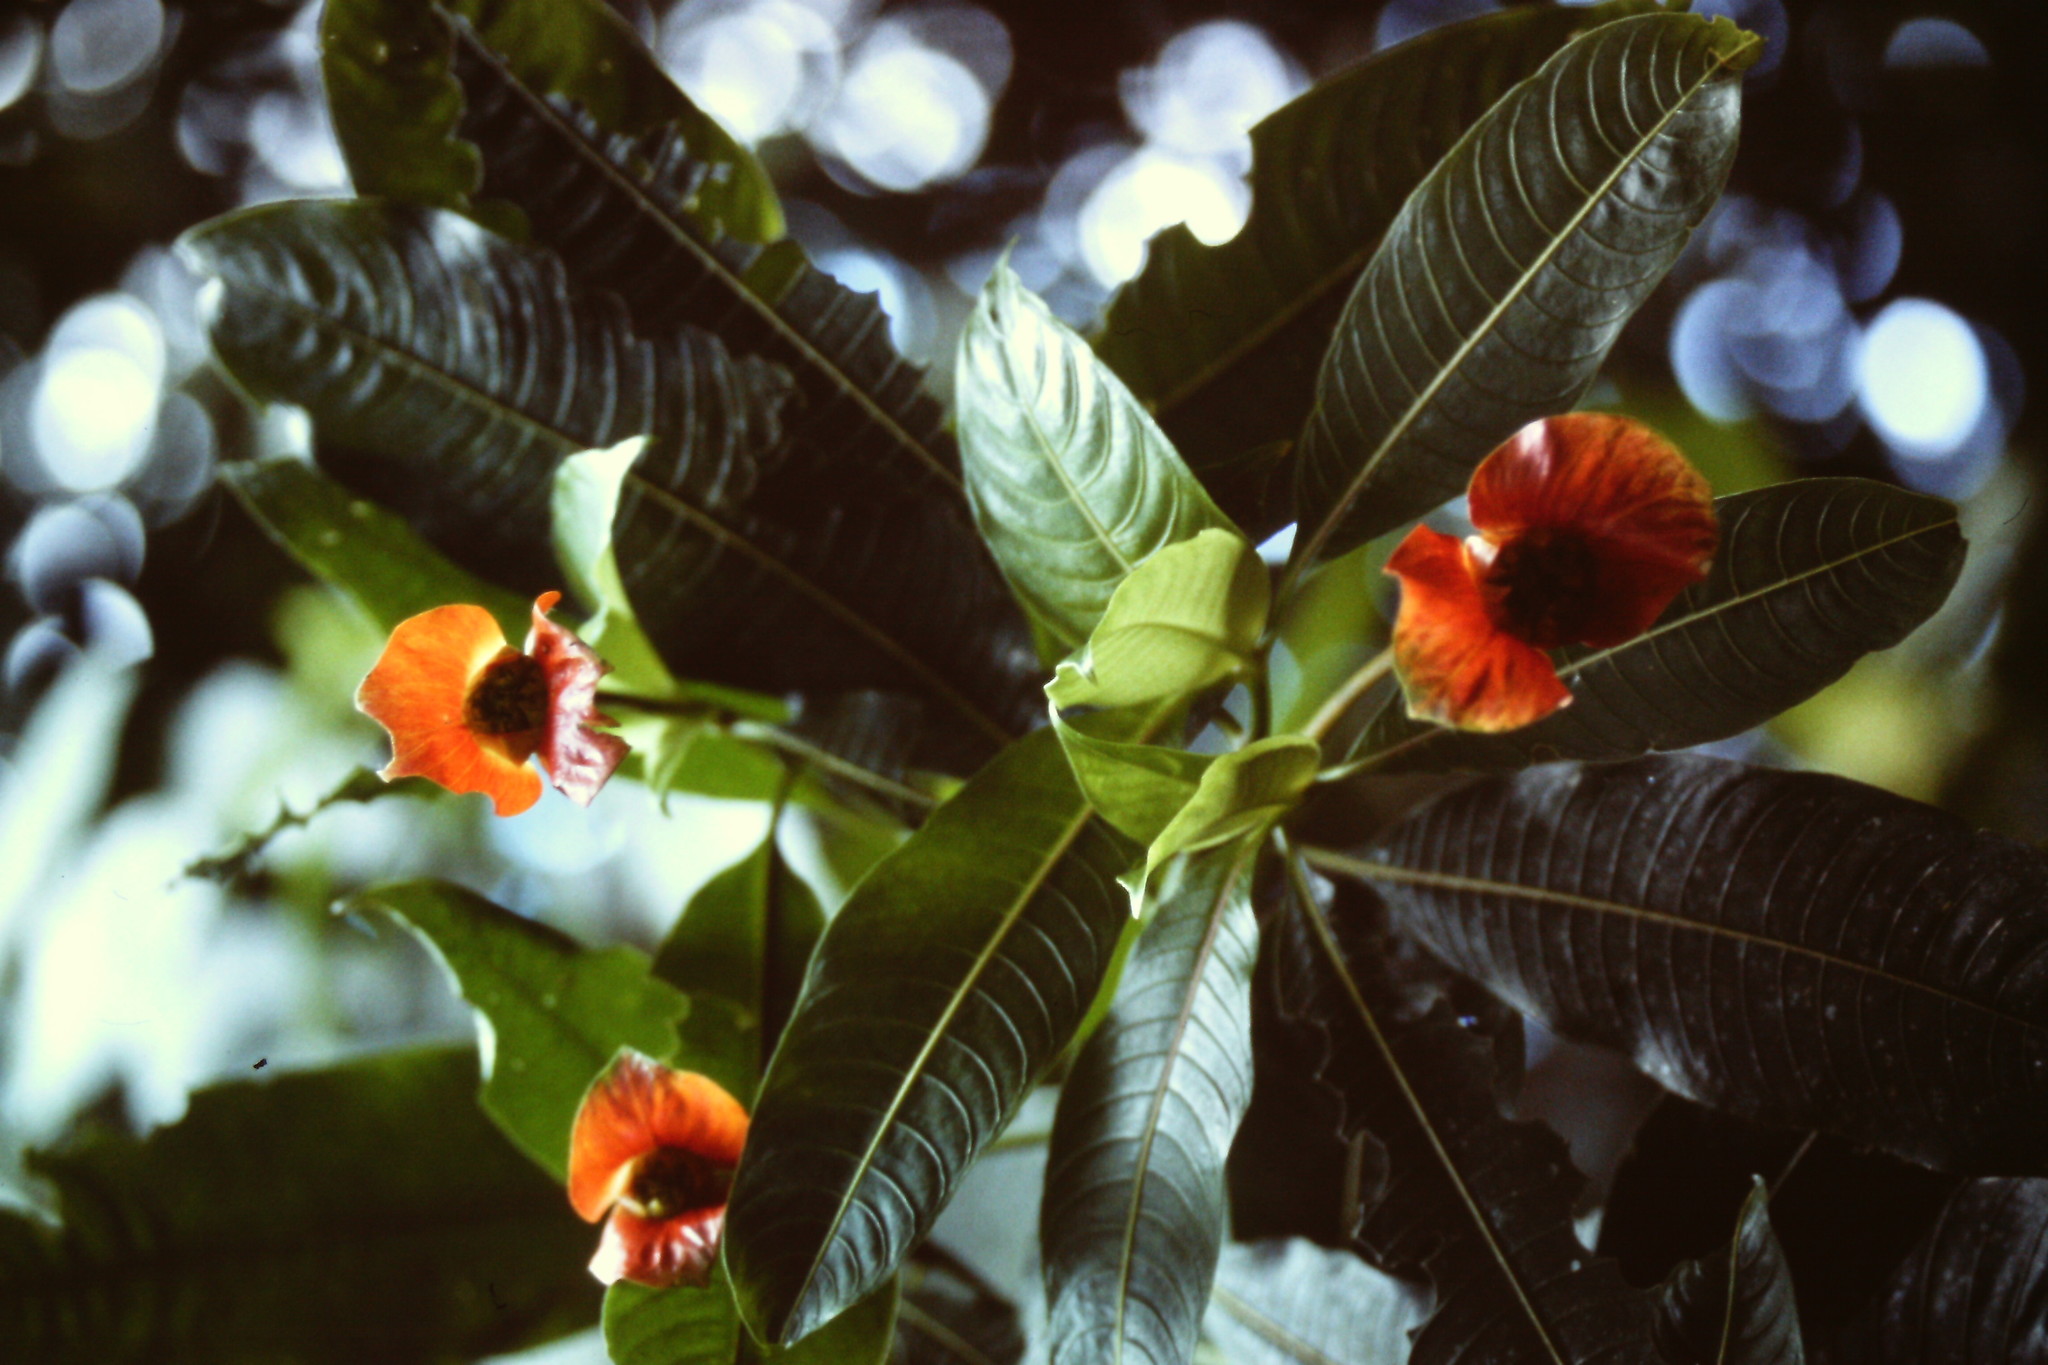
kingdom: Plantae
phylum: Tracheophyta
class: Magnoliopsida
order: Gentianales
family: Rubiaceae
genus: Palicourea
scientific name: Palicourea elata
